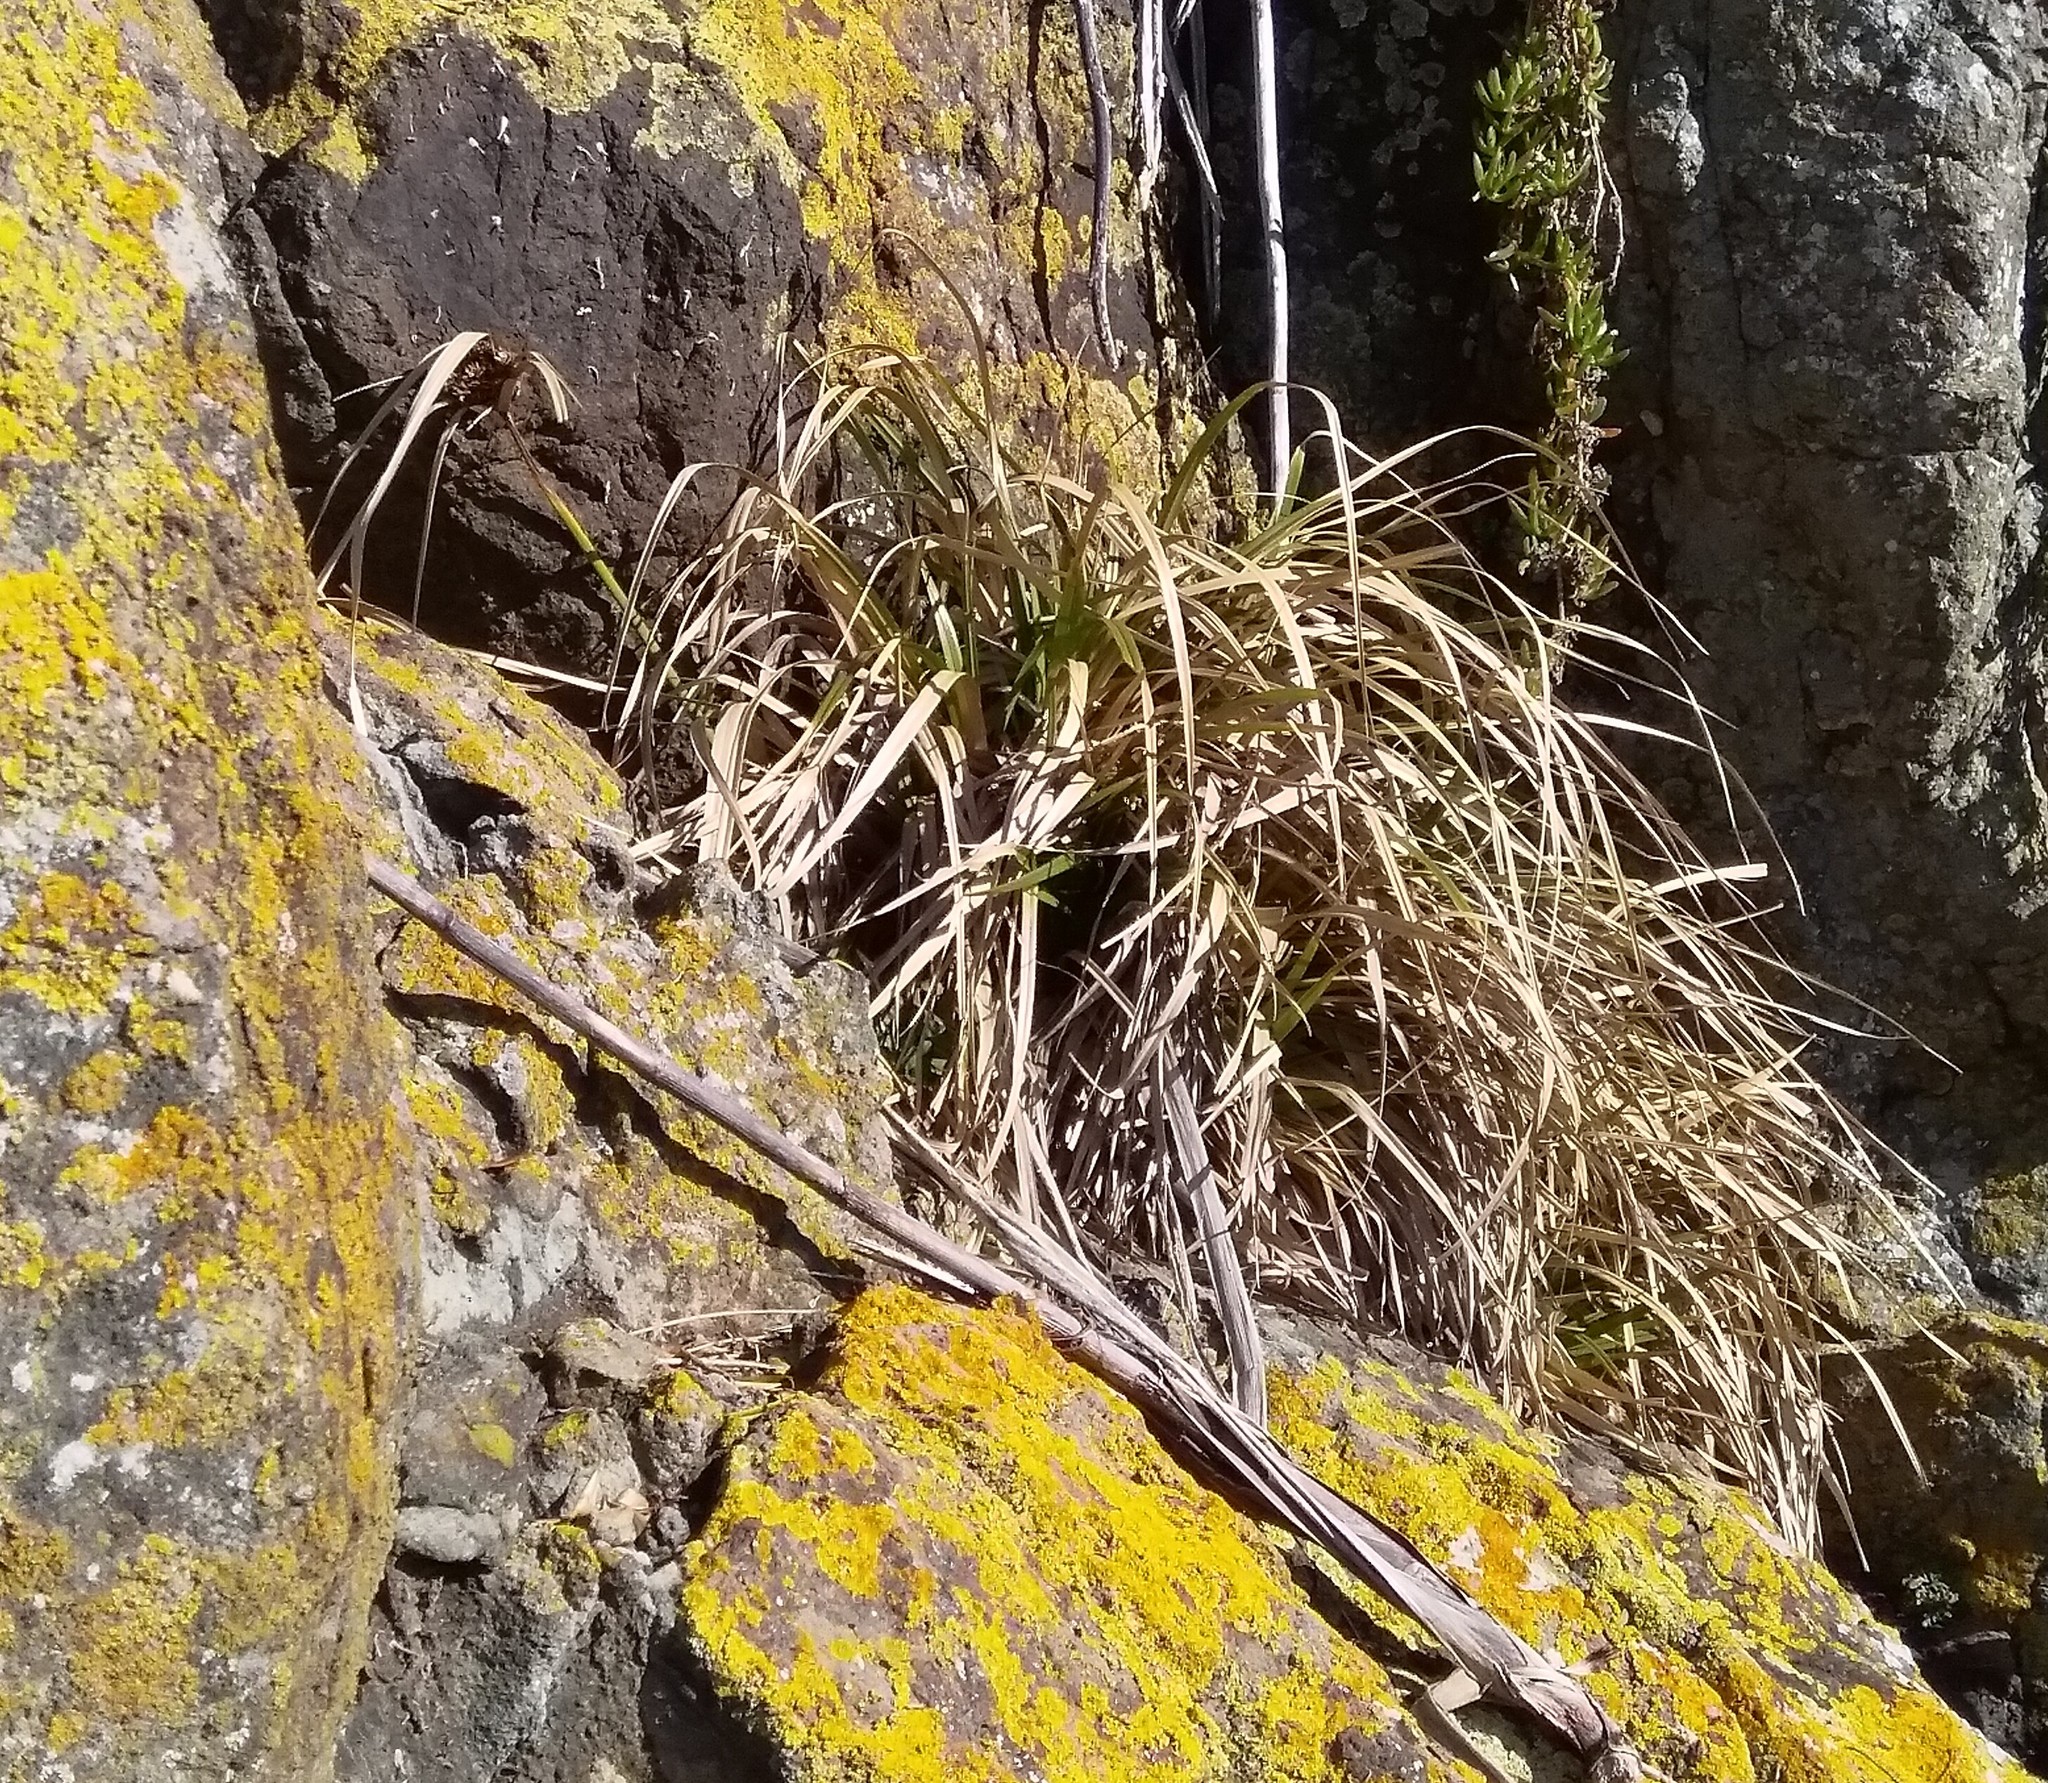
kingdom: Plantae
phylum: Tracheophyta
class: Liliopsida
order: Poales
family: Cyperaceae
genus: Cyperus
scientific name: Cyperus ustulatus
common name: Giant umbrella-sedge
